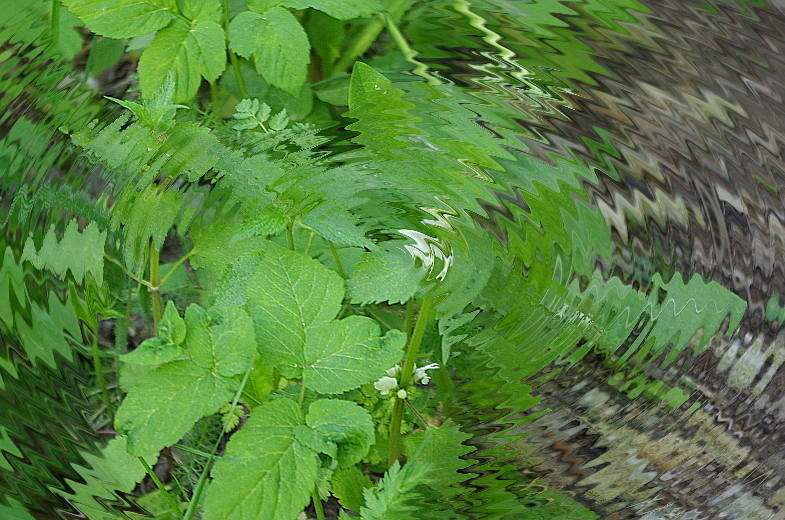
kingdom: Plantae
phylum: Tracheophyta
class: Magnoliopsida
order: Apiales
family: Apiaceae
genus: Aegopodium
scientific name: Aegopodium podagraria
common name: Ground-elder
